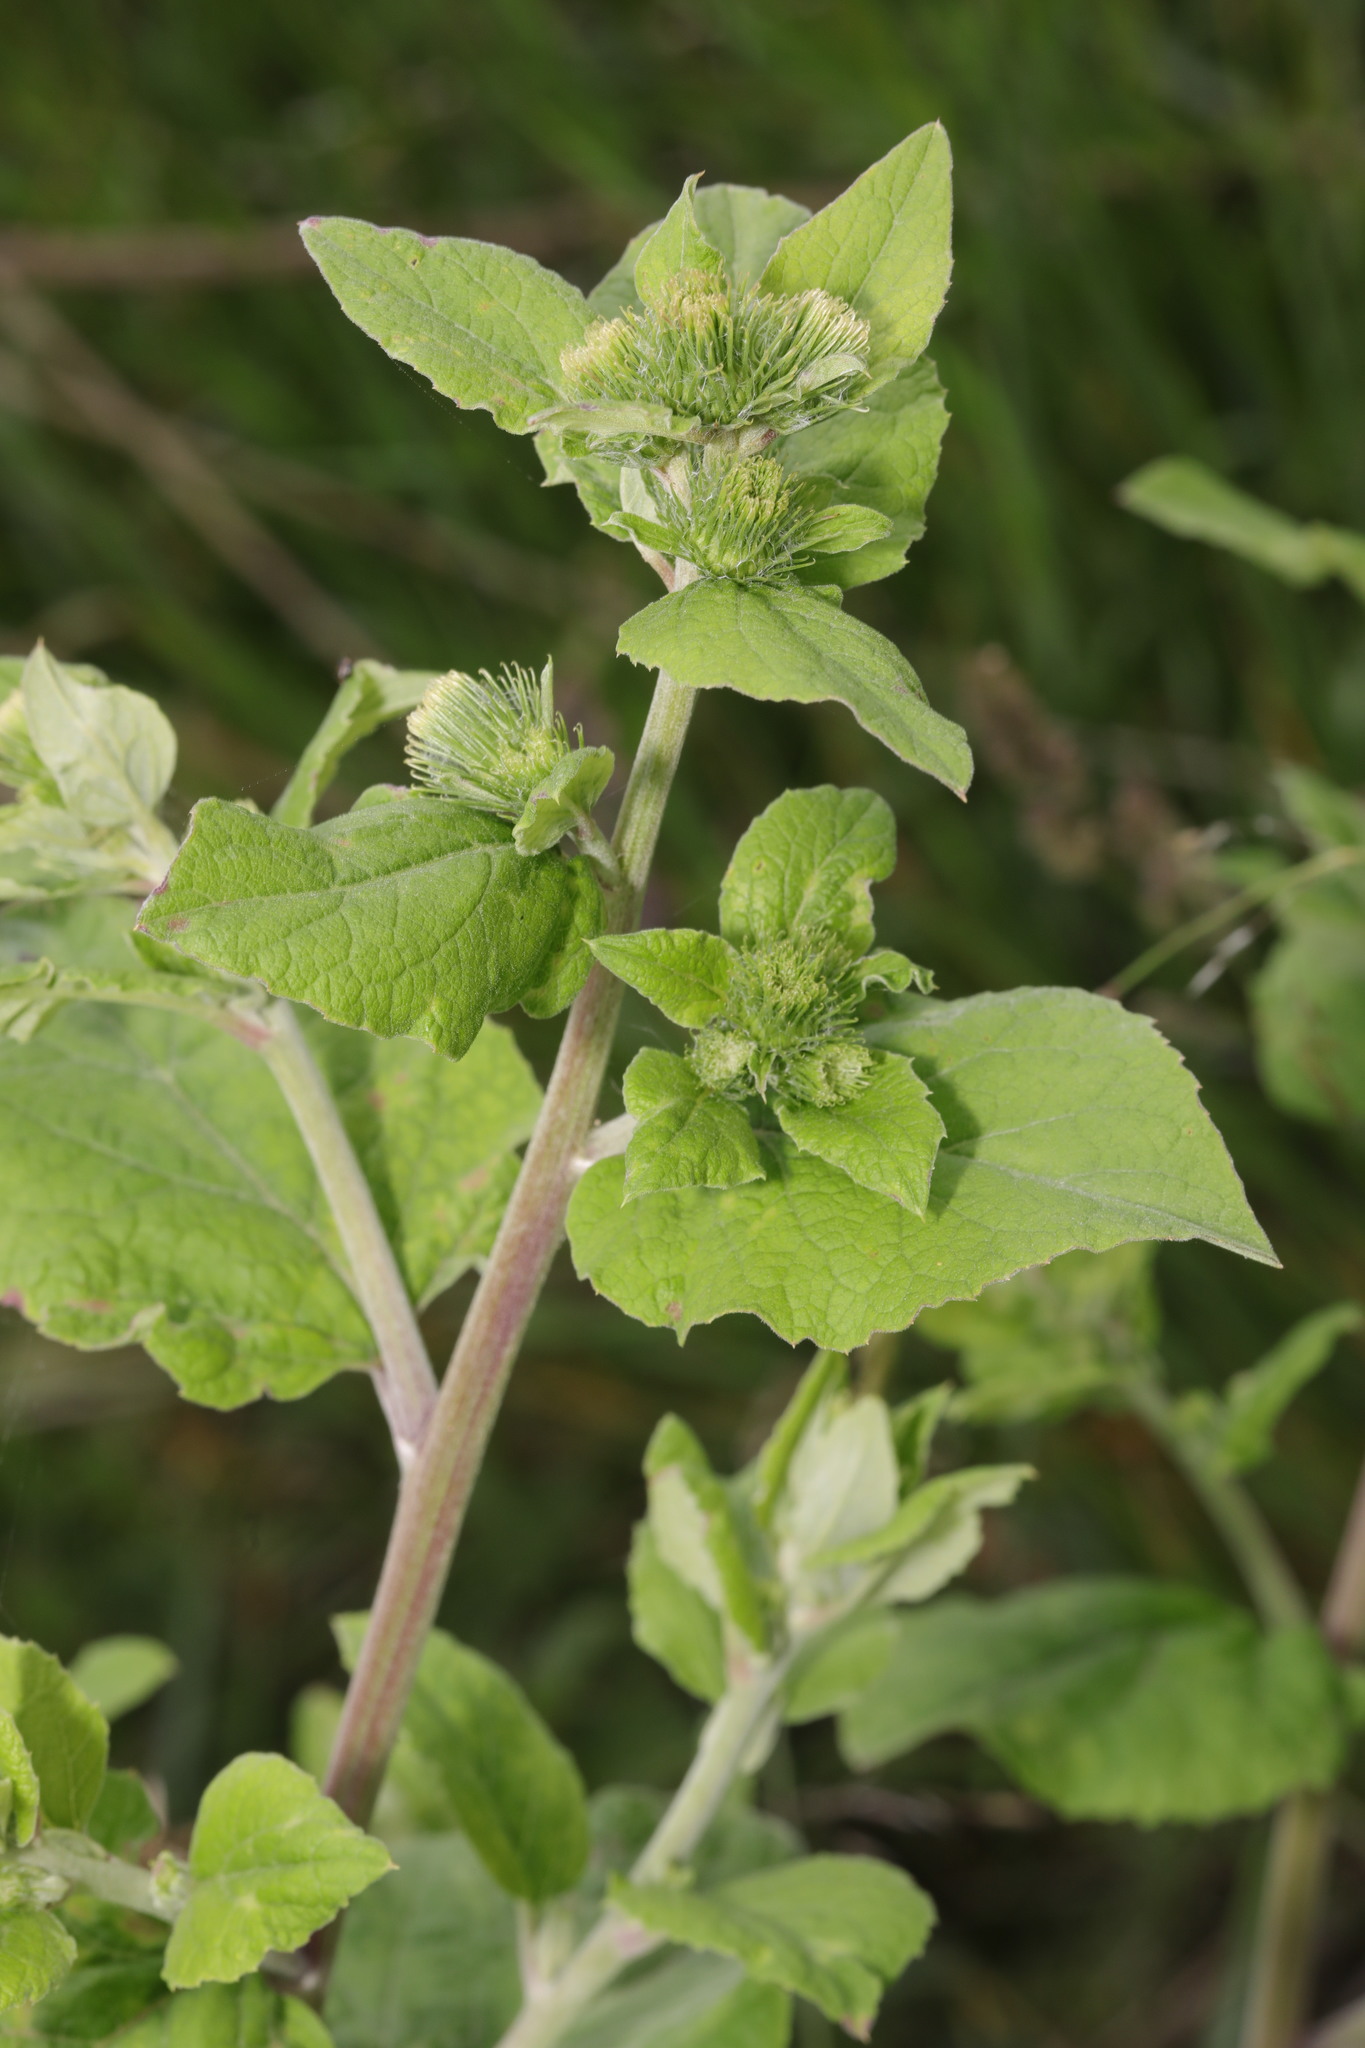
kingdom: Plantae
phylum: Tracheophyta
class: Magnoliopsida
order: Asterales
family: Asteraceae
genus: Arctium
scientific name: Arctium minus
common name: Lesser burdock
